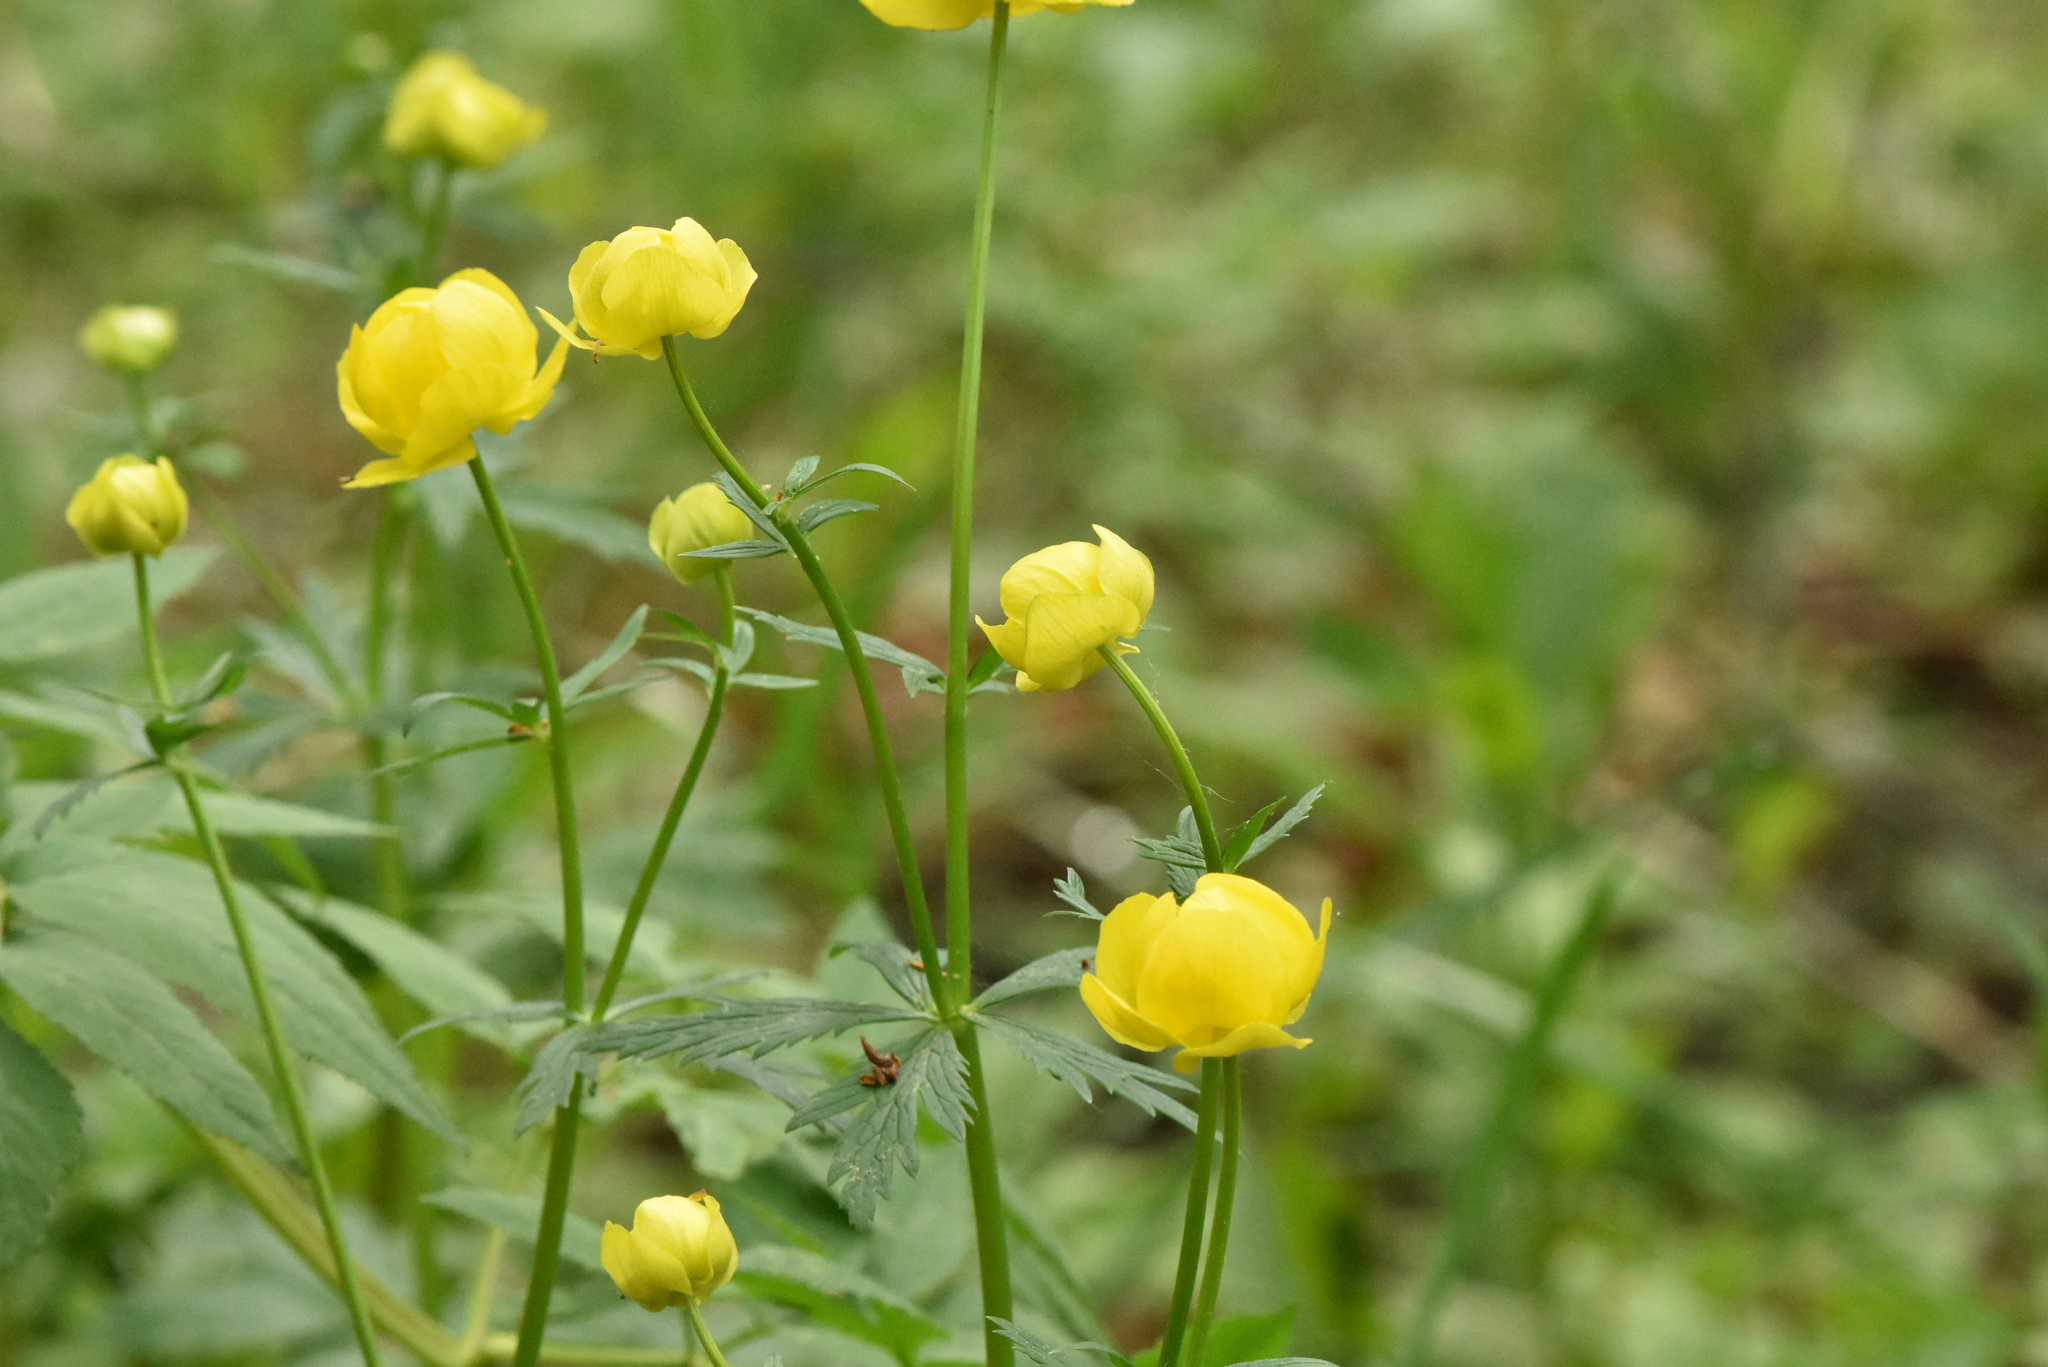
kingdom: Plantae
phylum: Tracheophyta
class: Magnoliopsida
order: Ranunculales
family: Ranunculaceae
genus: Trollius
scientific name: Trollius europaeus
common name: European globeflower
